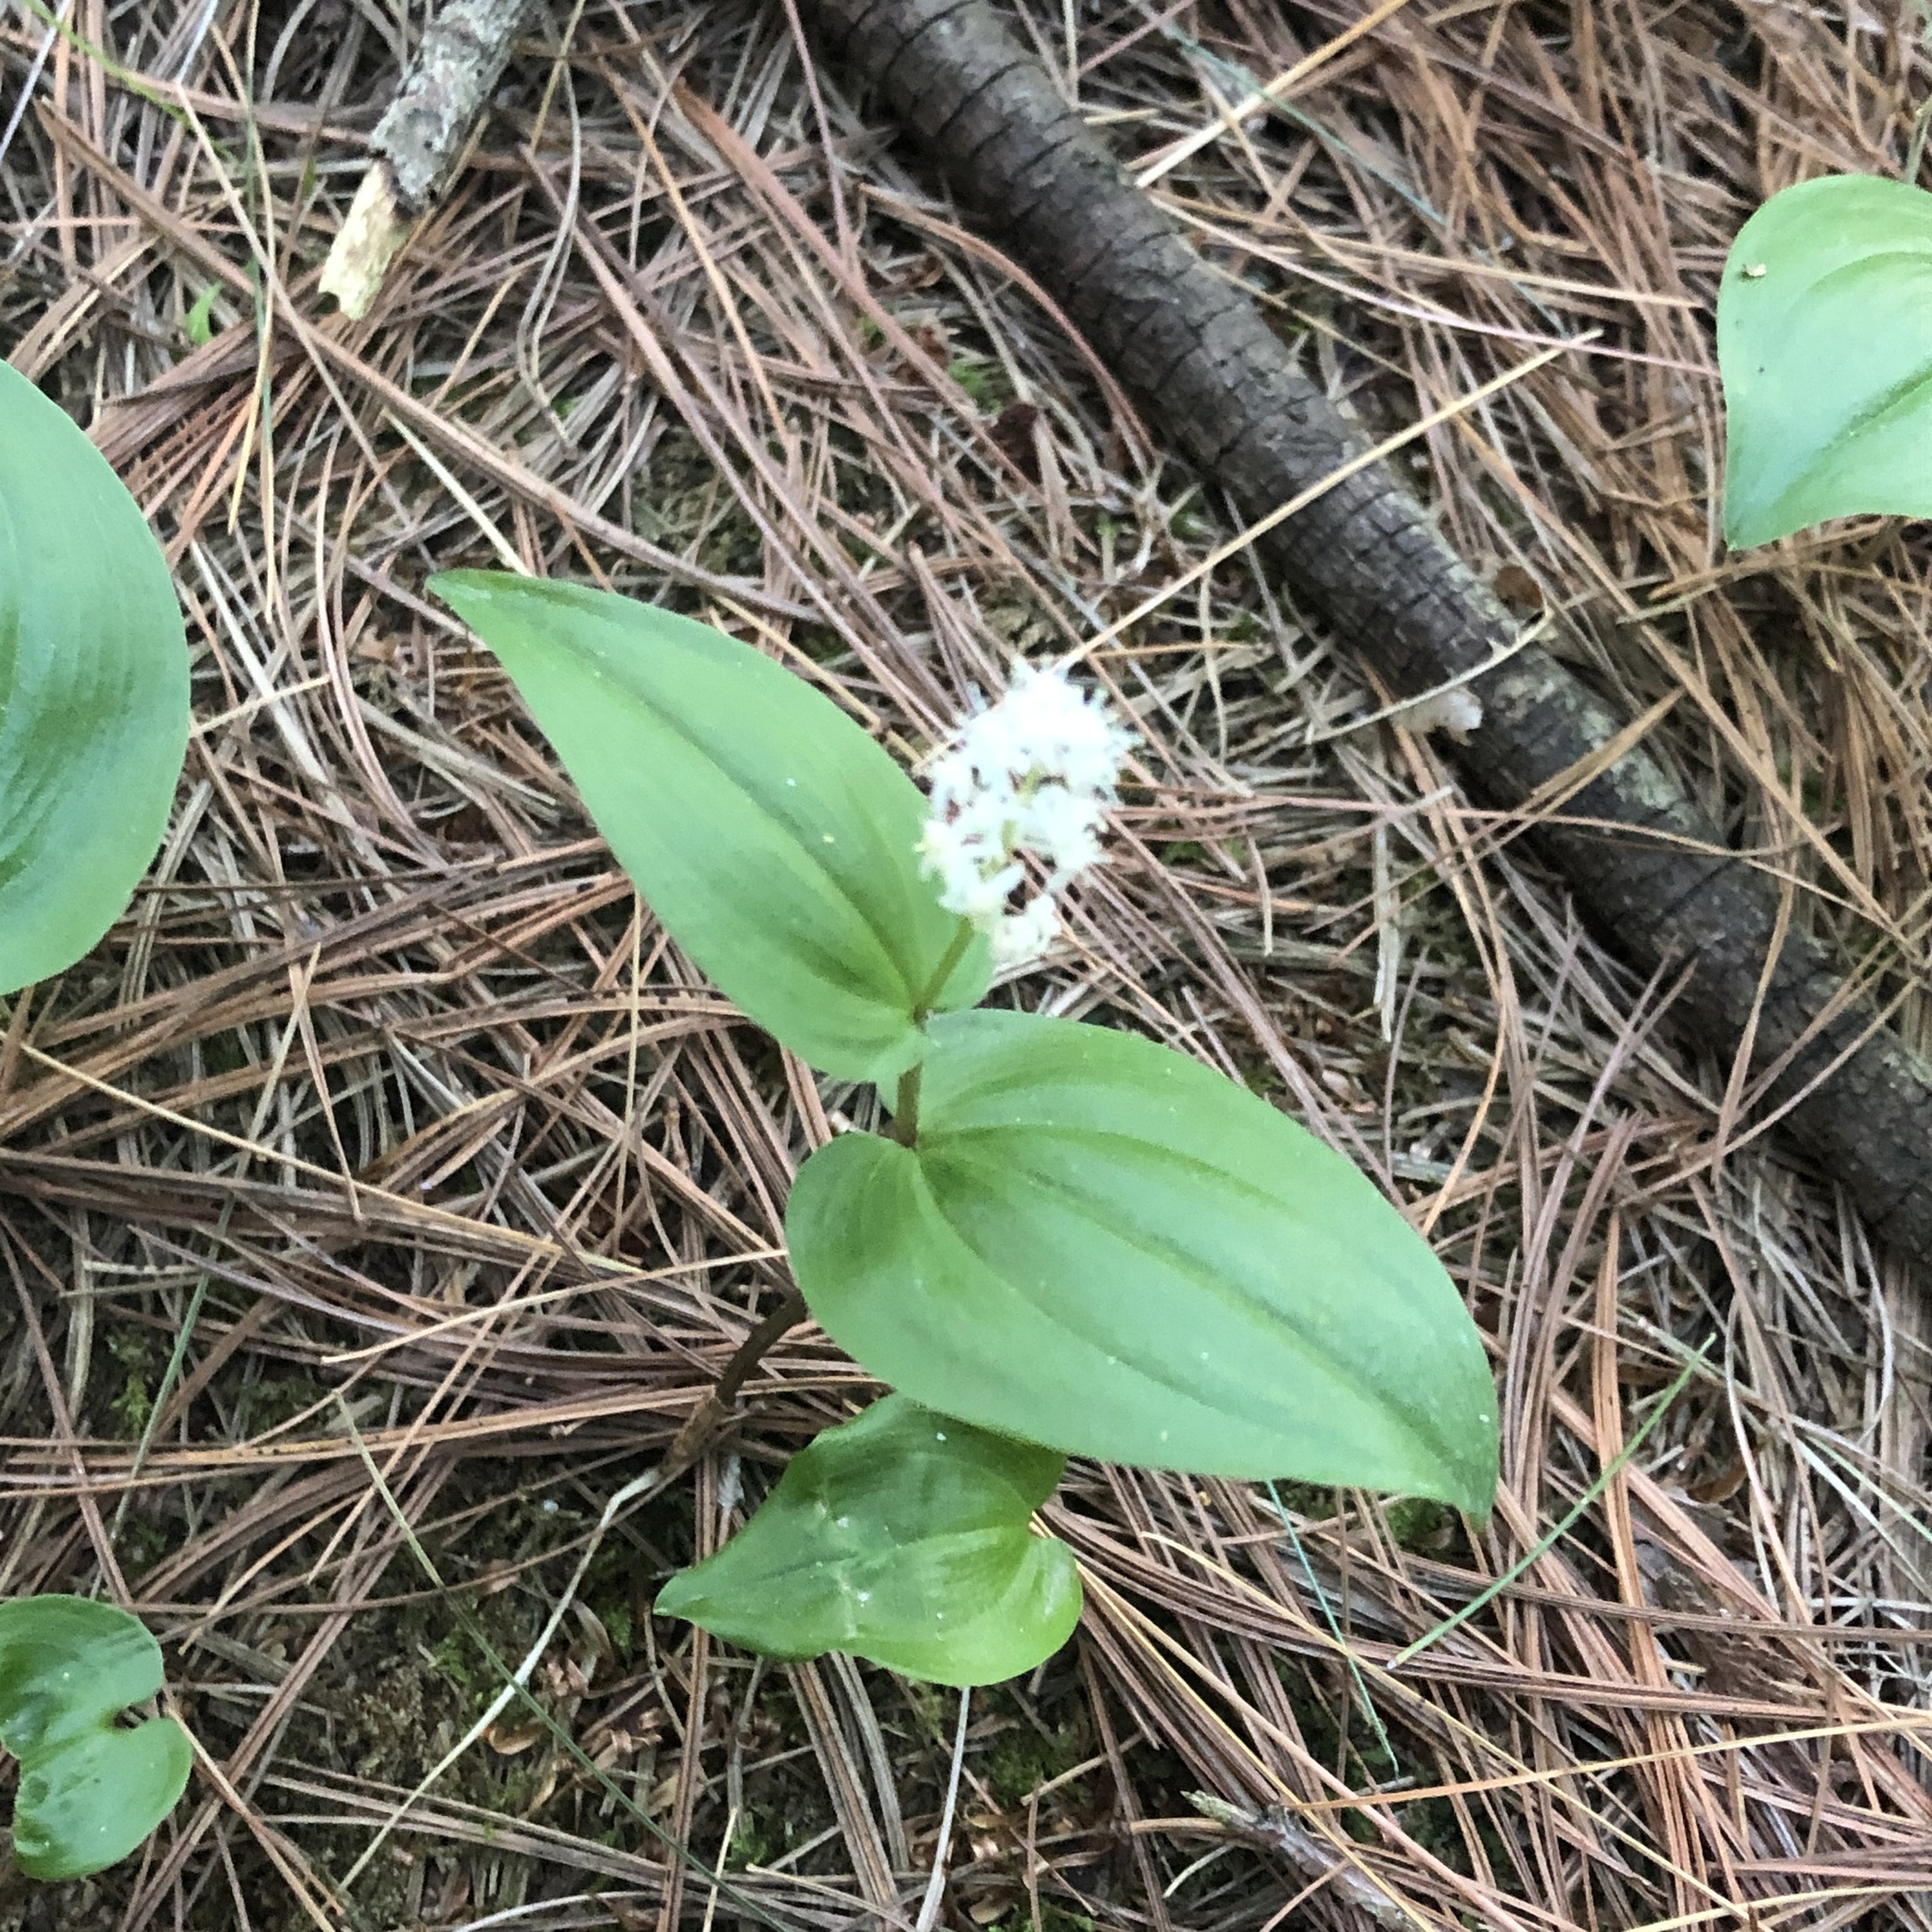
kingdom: Plantae
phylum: Tracheophyta
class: Liliopsida
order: Asparagales
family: Asparagaceae
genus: Maianthemum
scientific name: Maianthemum canadense
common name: False lily-of-the-valley
